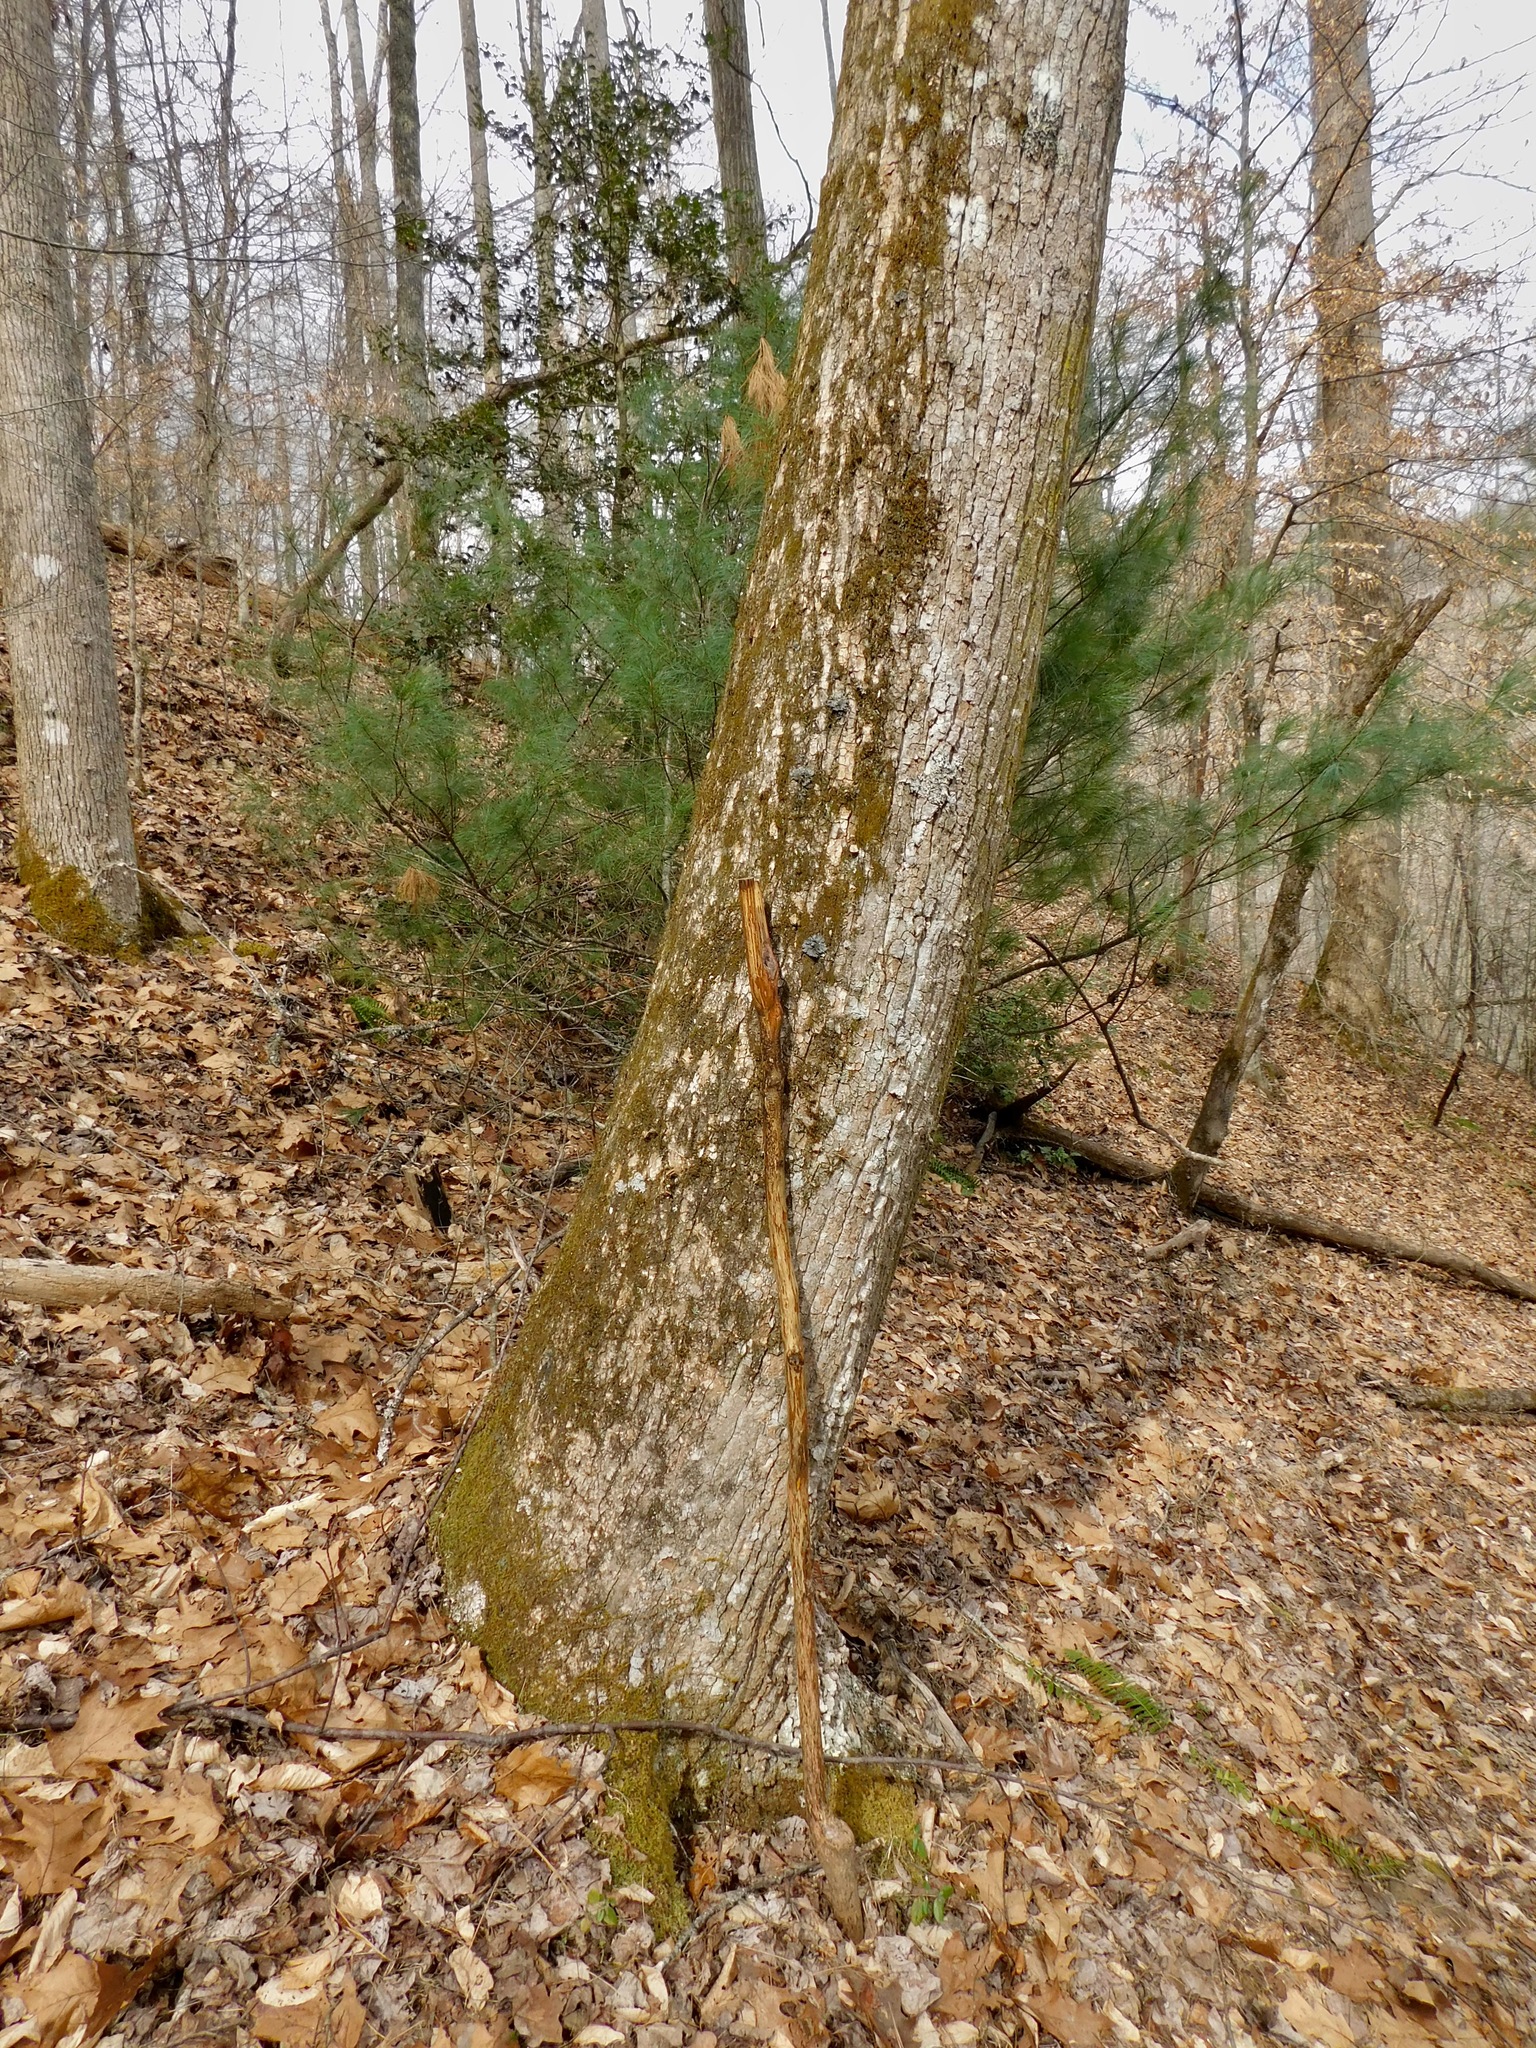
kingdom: Plantae
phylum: Tracheophyta
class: Magnoliopsida
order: Magnoliales
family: Magnoliaceae
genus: Liriodendron
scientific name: Liriodendron tulipifera
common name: Tulip tree
